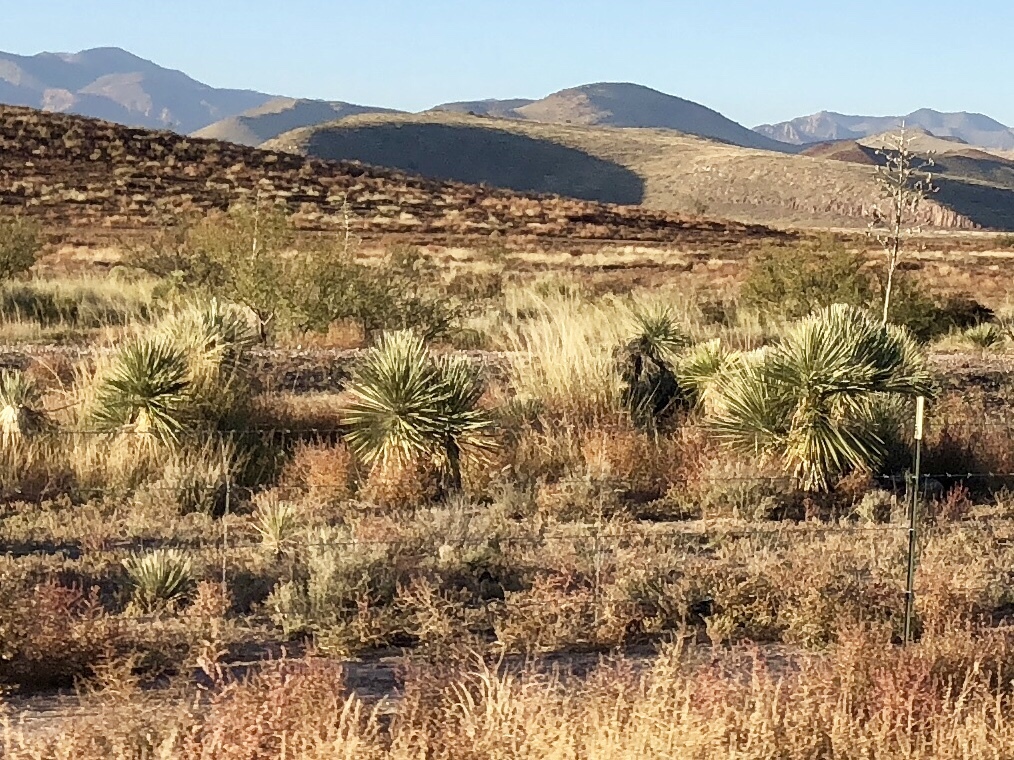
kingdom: Plantae
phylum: Tracheophyta
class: Liliopsida
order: Asparagales
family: Asparagaceae
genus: Yucca
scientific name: Yucca elata
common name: Palmella
